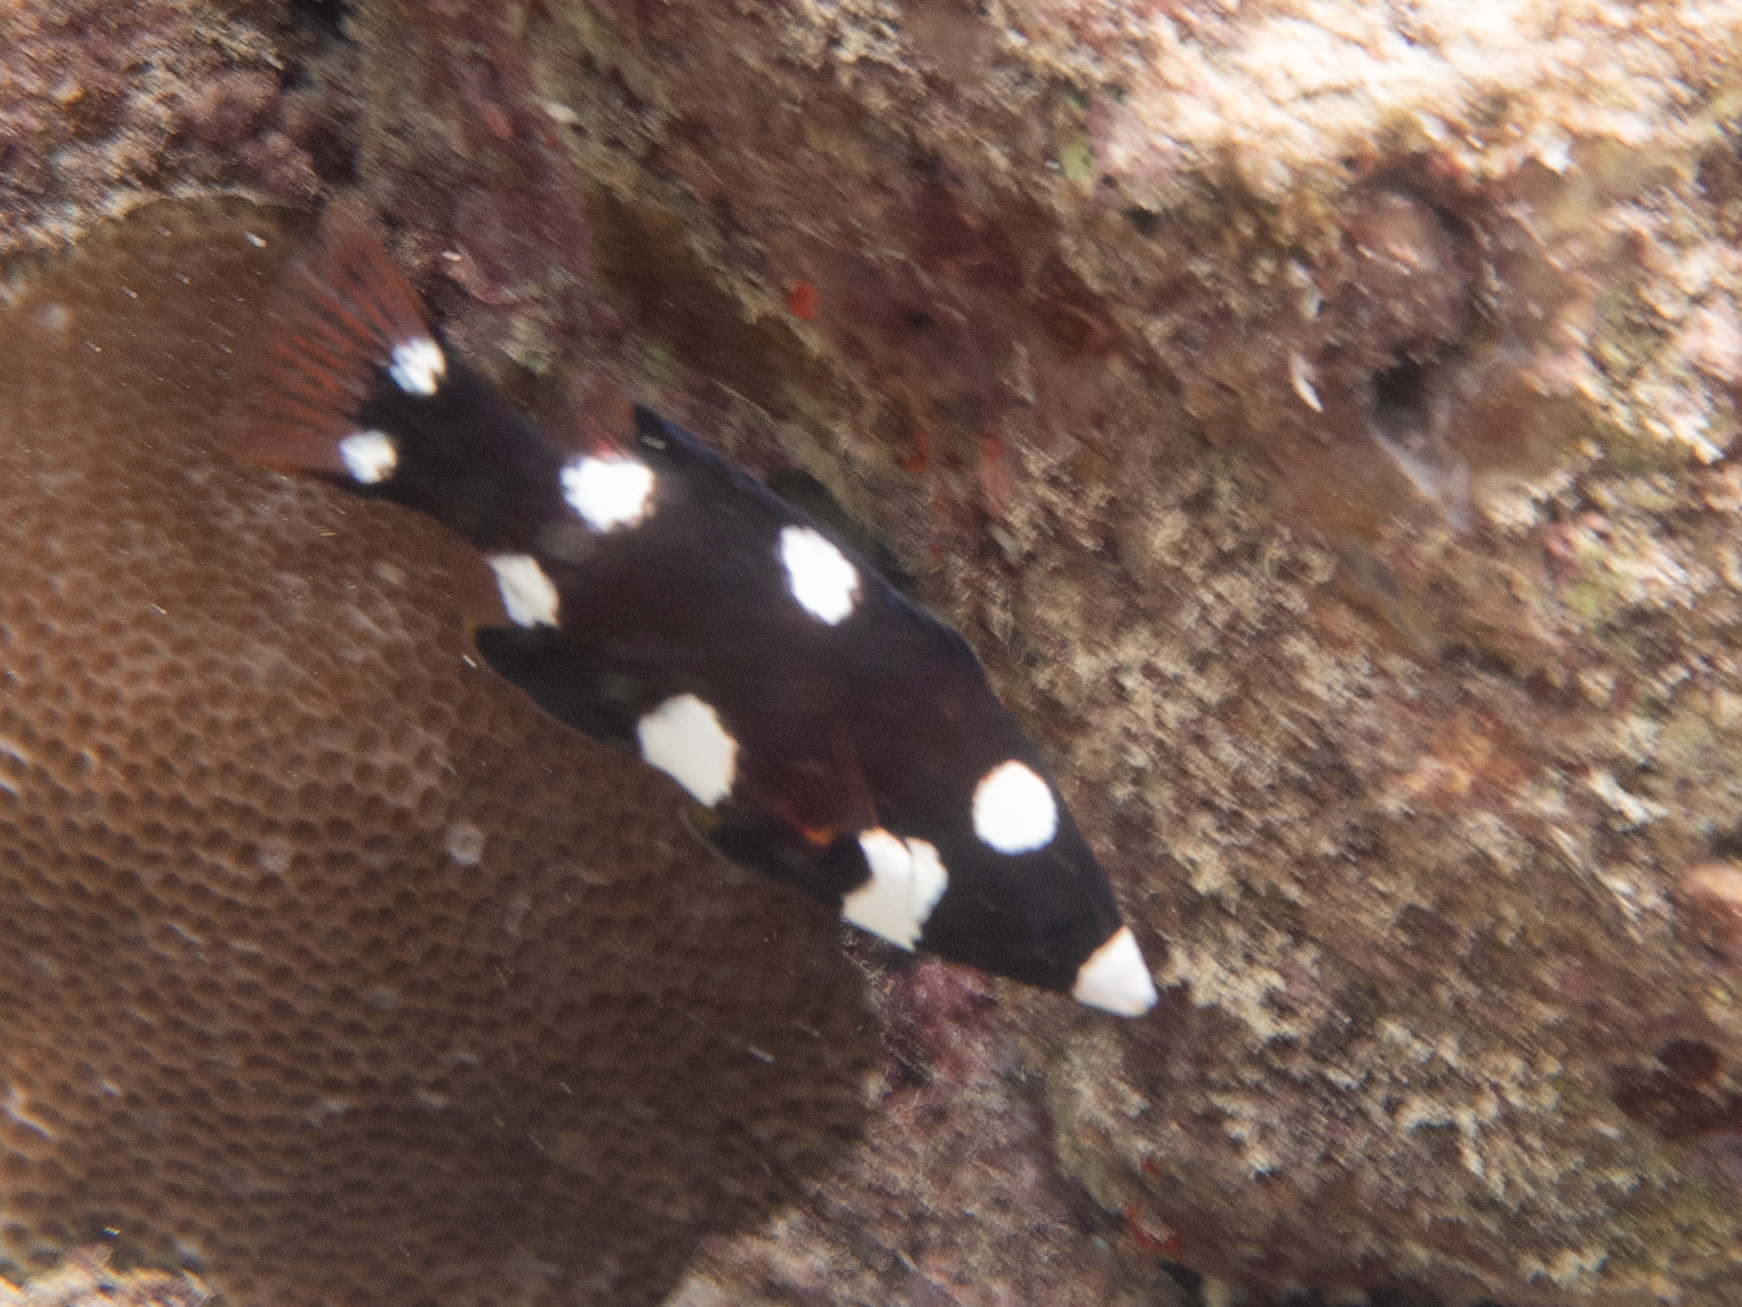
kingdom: Animalia
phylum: Chordata
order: Perciformes
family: Labridae
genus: Bodianus
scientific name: Bodianus axillaris
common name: Axilspot hogfish
